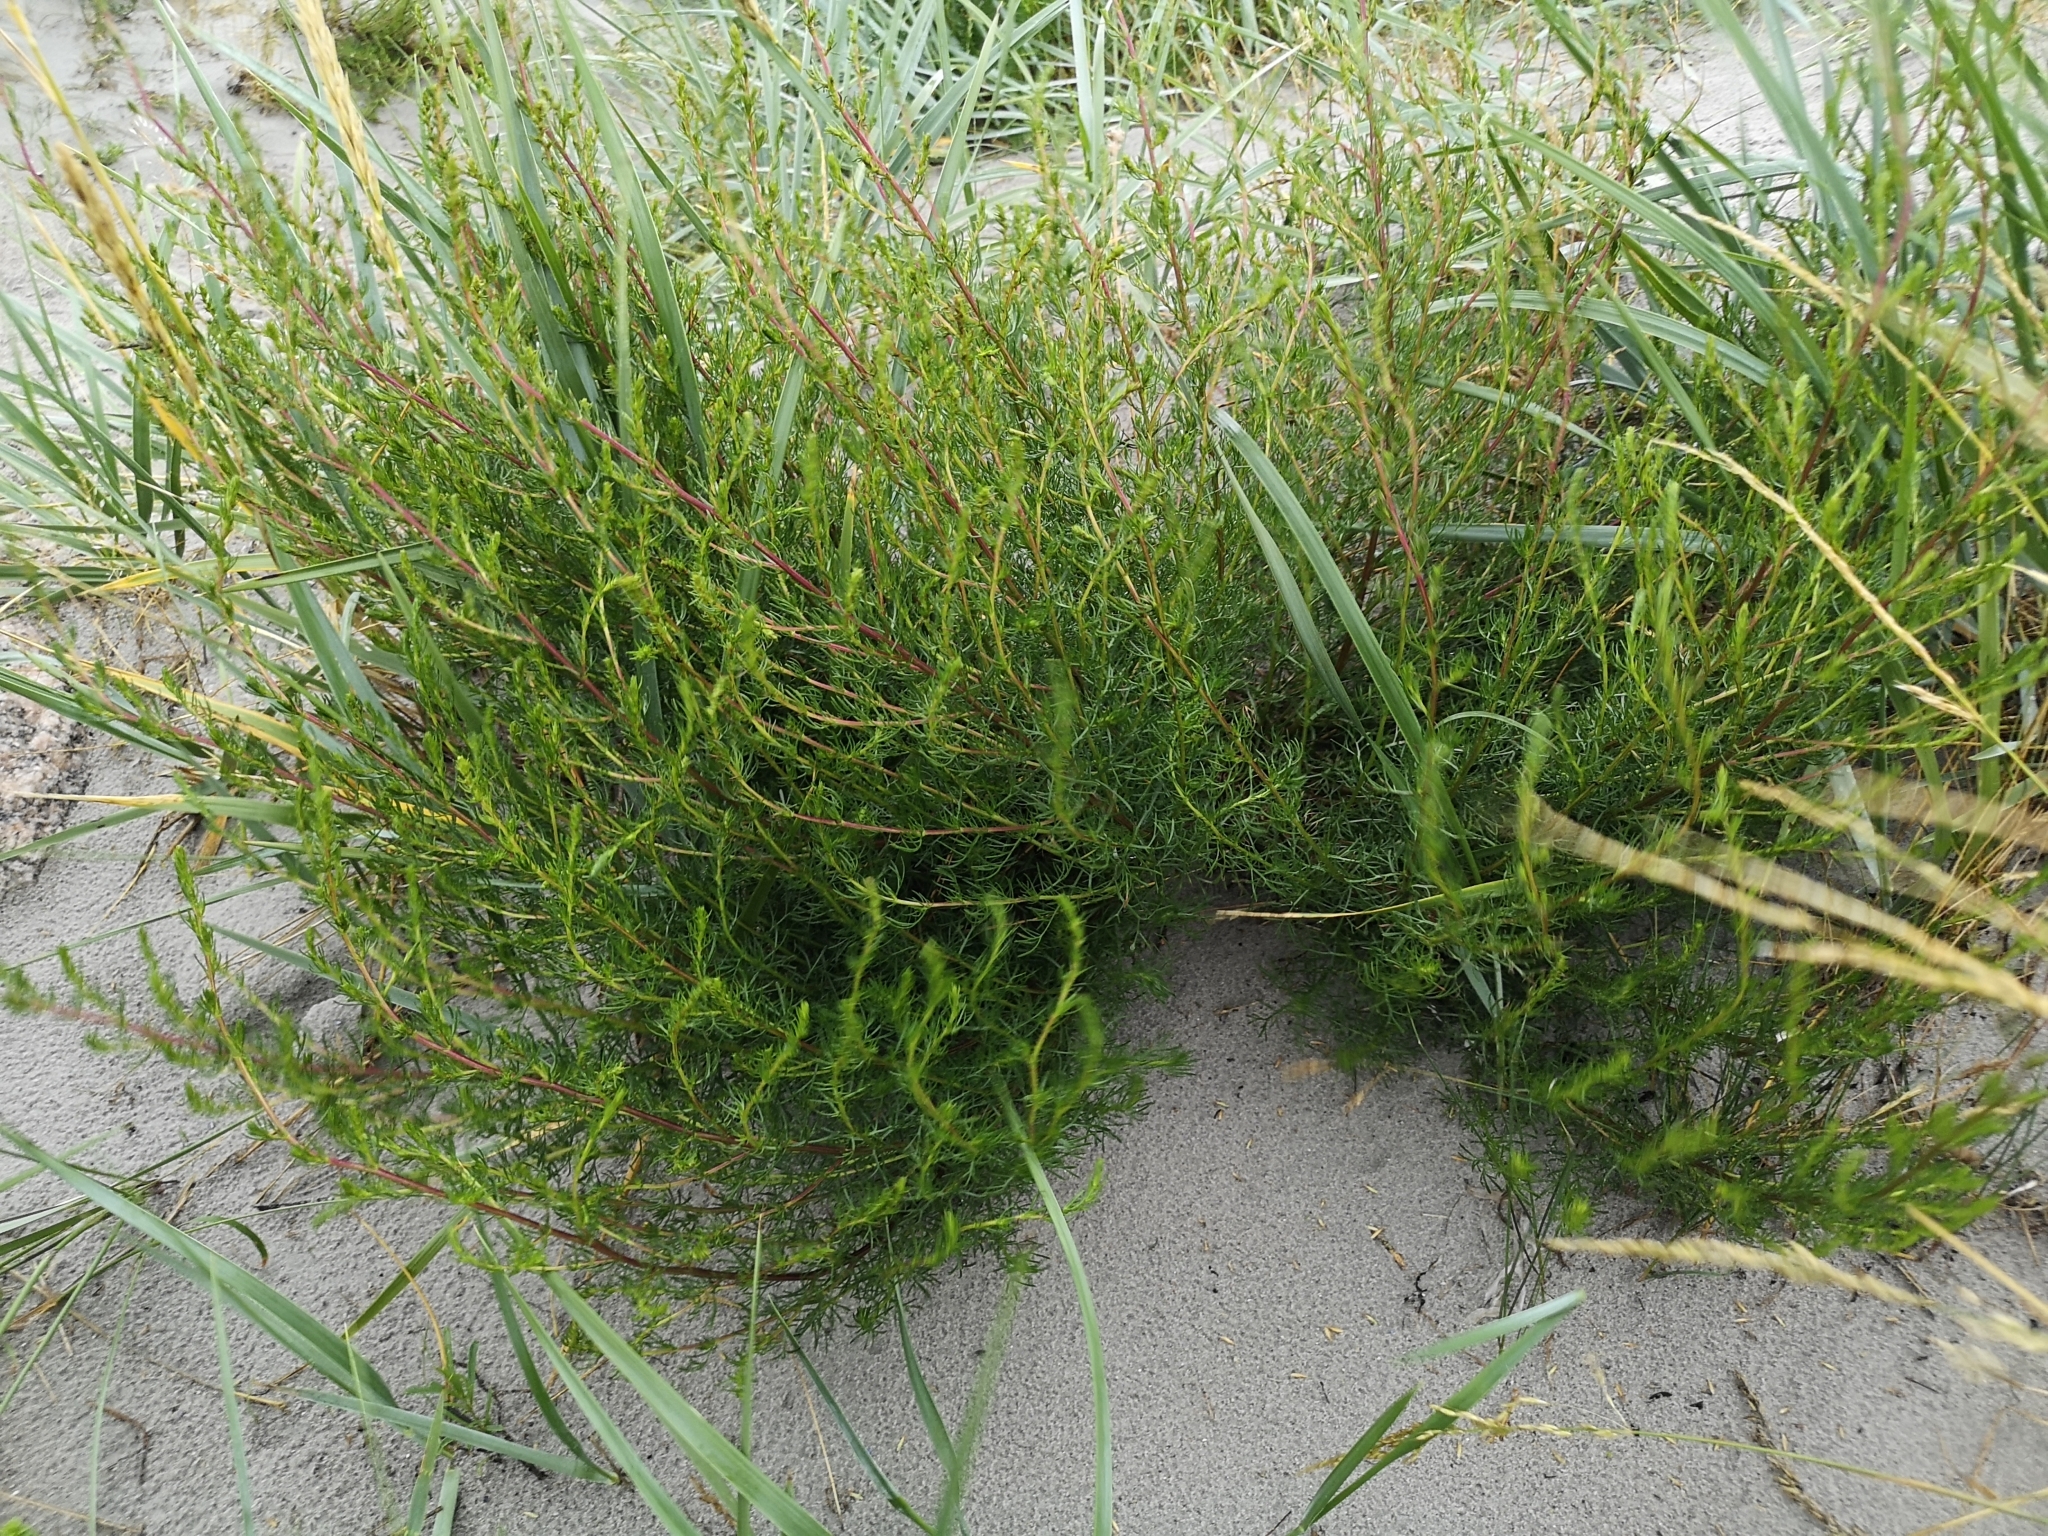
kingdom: Plantae
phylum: Tracheophyta
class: Magnoliopsida
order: Asterales
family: Asteraceae
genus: Artemisia
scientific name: Artemisia campestris
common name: Field wormwood
